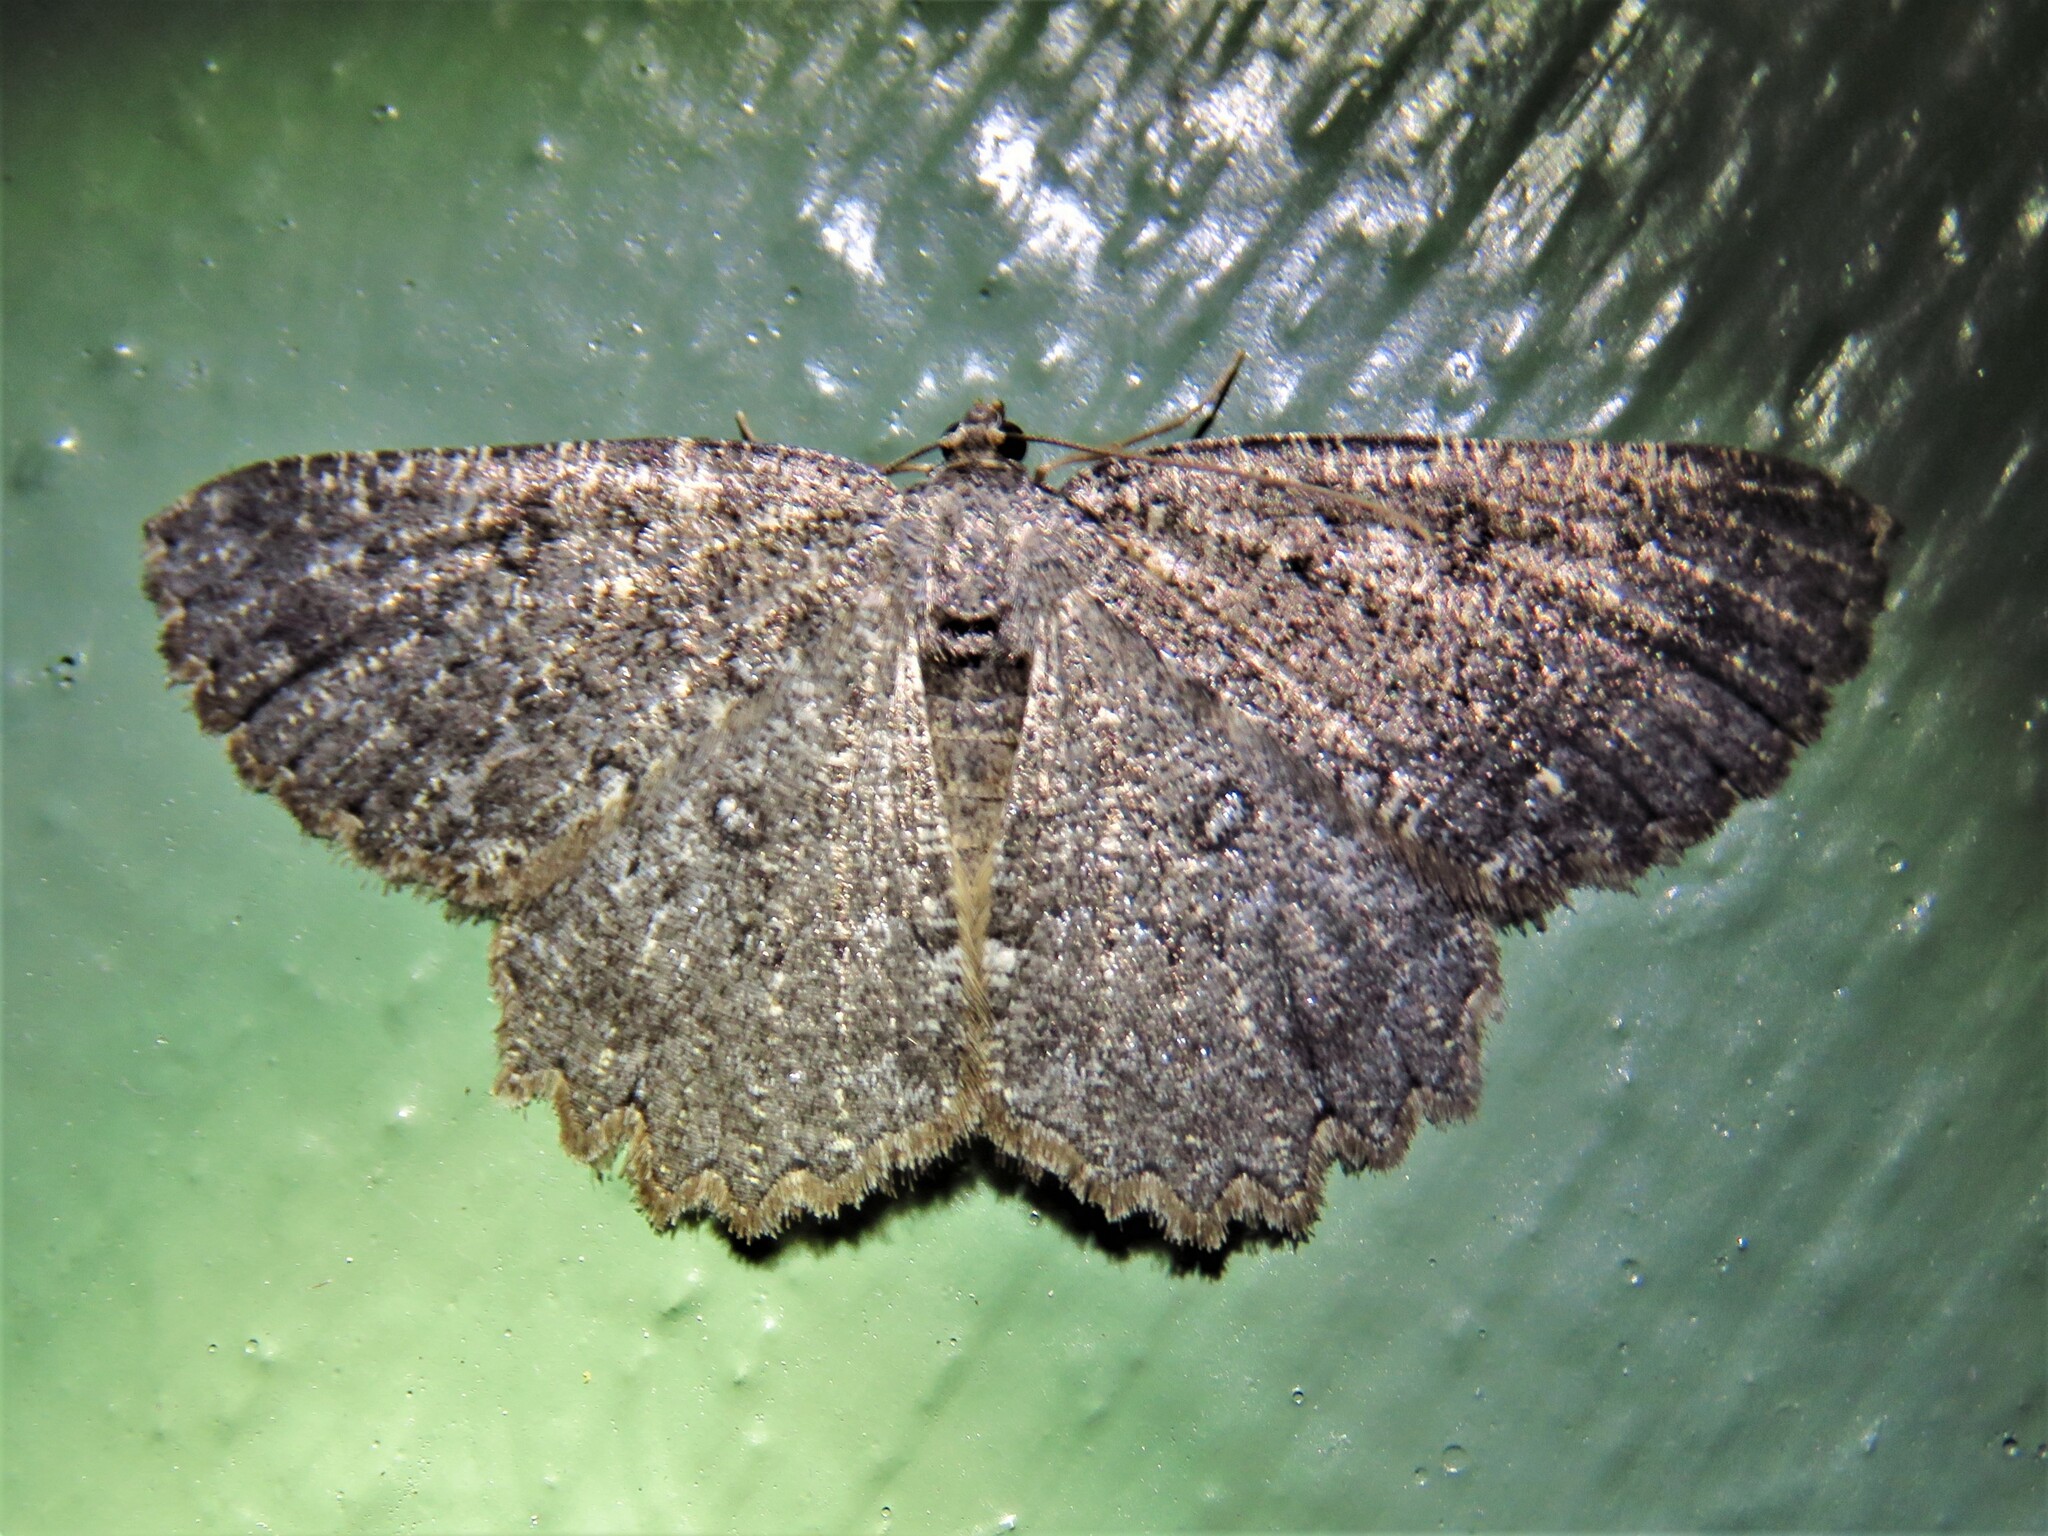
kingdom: Animalia
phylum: Arthropoda
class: Insecta
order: Lepidoptera
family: Geometridae
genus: Charissa
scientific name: Charissa obscurata
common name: Annulet
